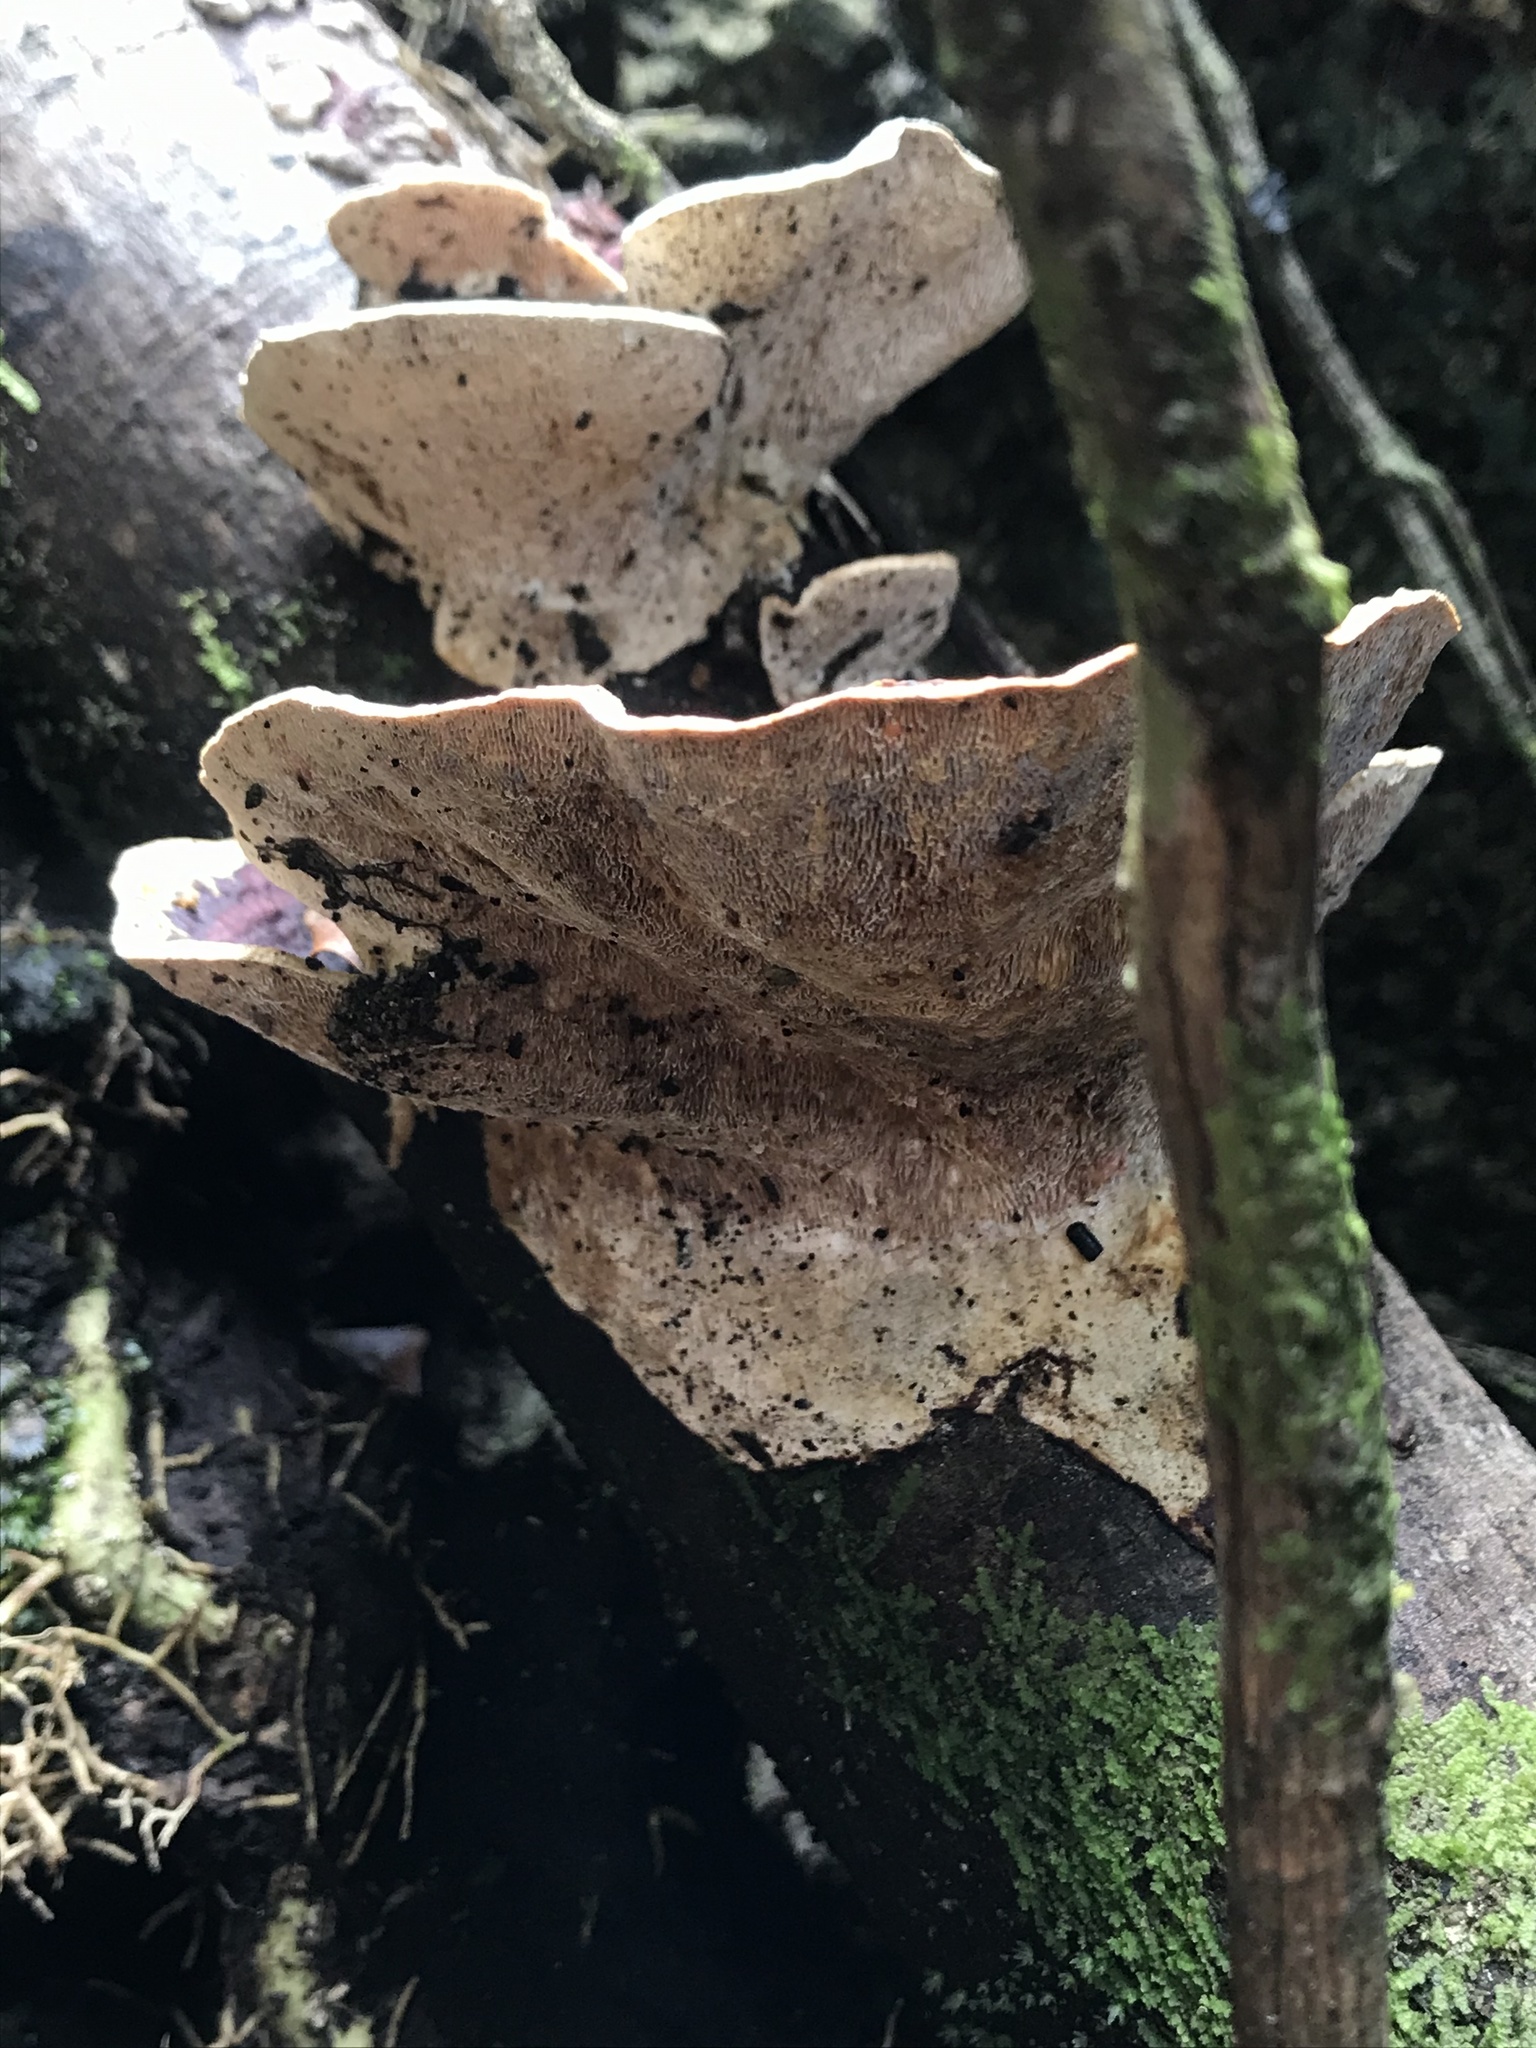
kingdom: Fungi
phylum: Basidiomycota
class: Agaricomycetes
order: Polyporales
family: Polyporaceae
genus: Earliella
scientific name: Earliella scabrosa
